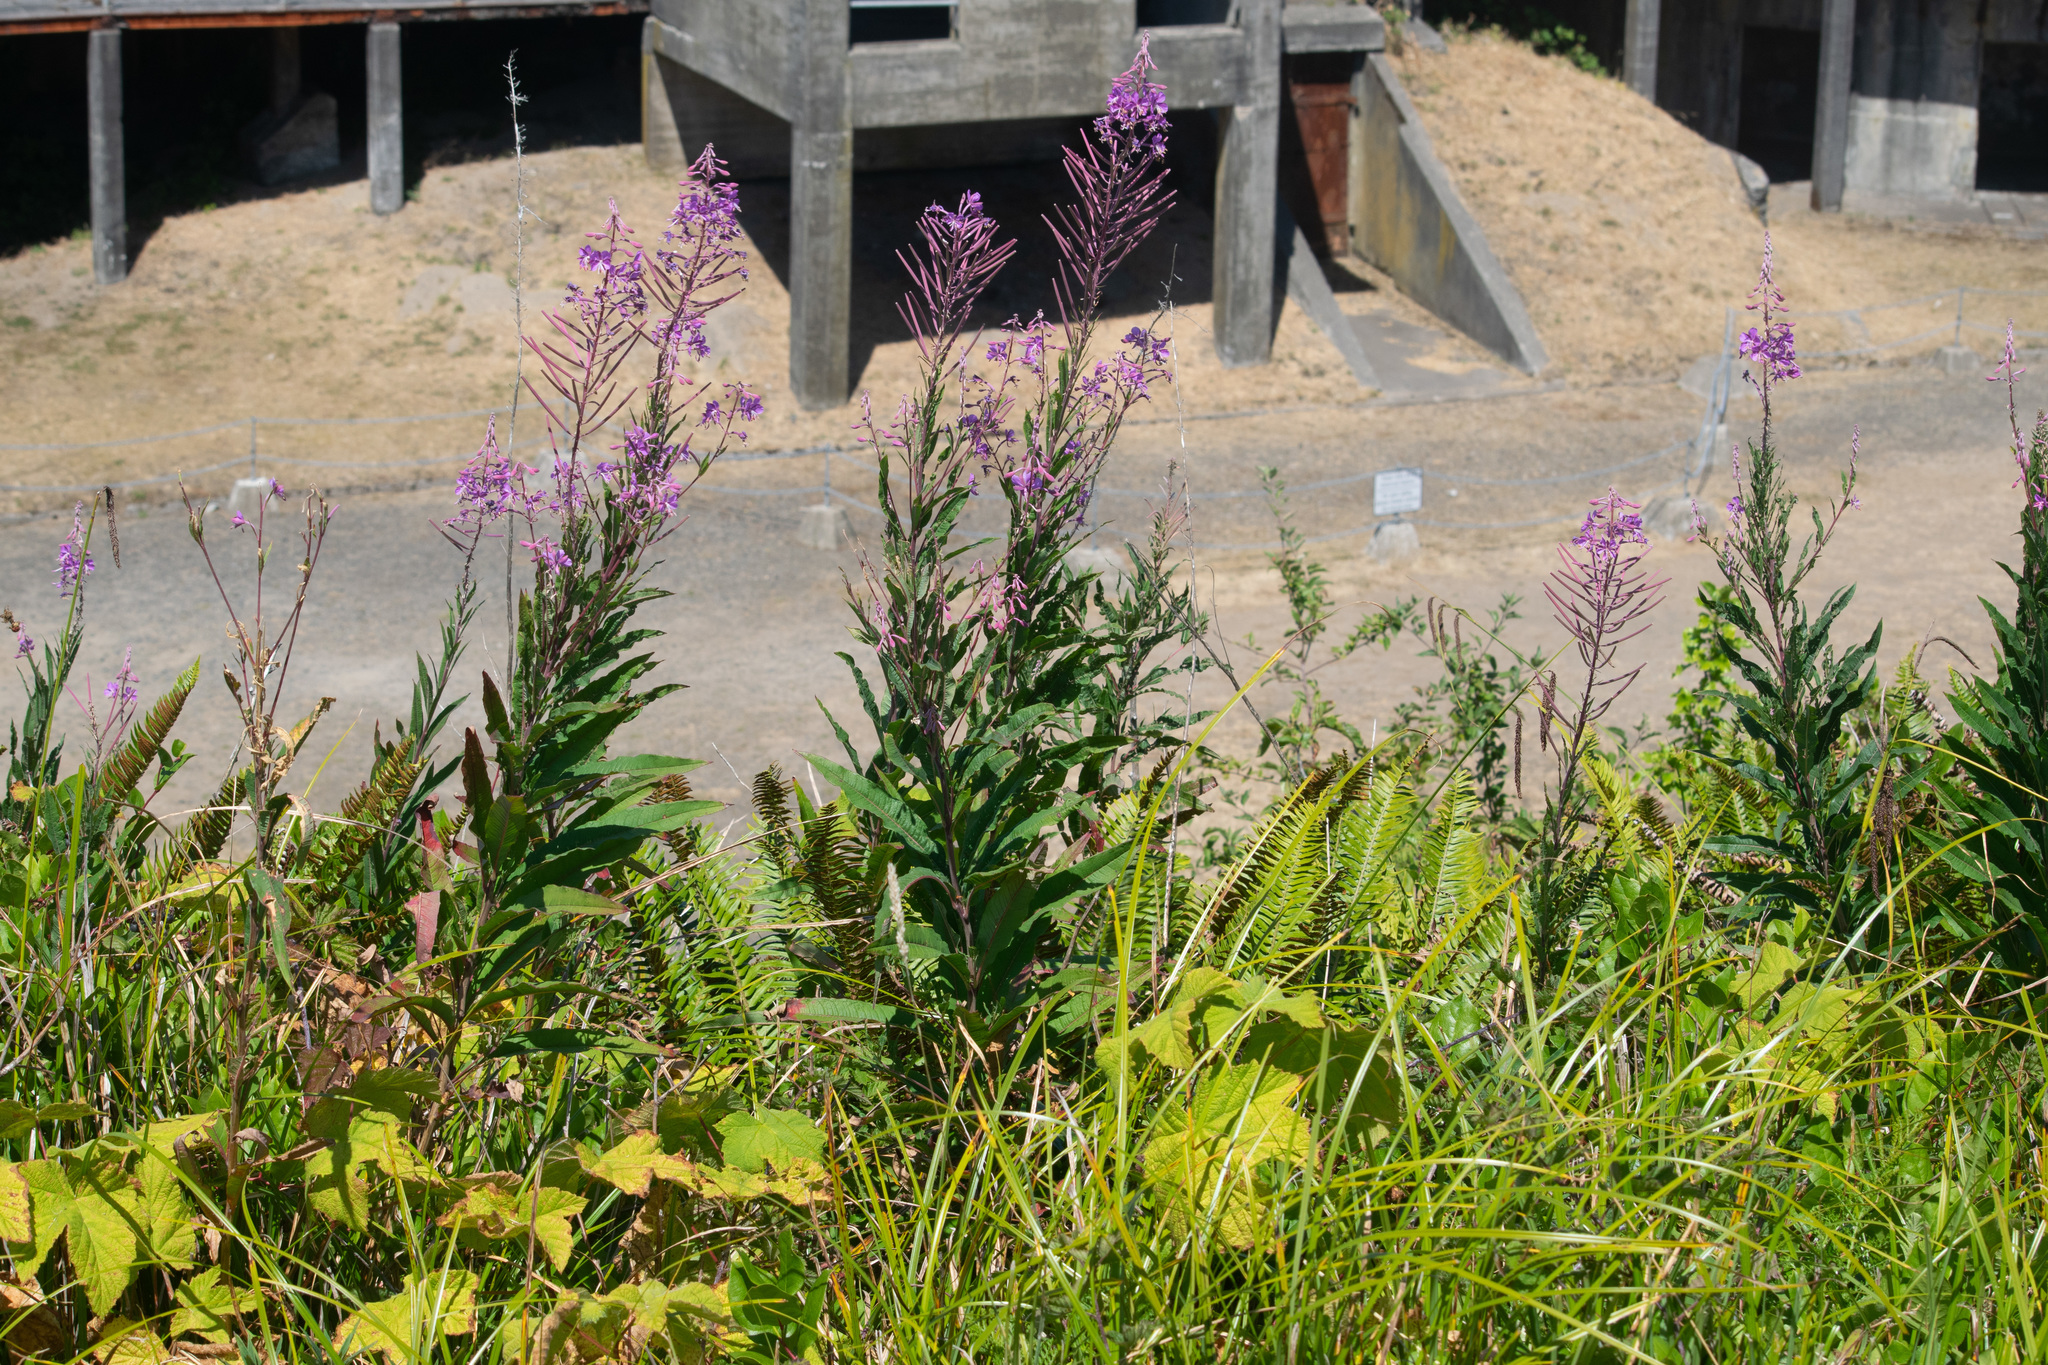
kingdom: Plantae
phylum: Tracheophyta
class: Magnoliopsida
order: Myrtales
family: Onagraceae
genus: Chamaenerion
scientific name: Chamaenerion angustifolium
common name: Fireweed
